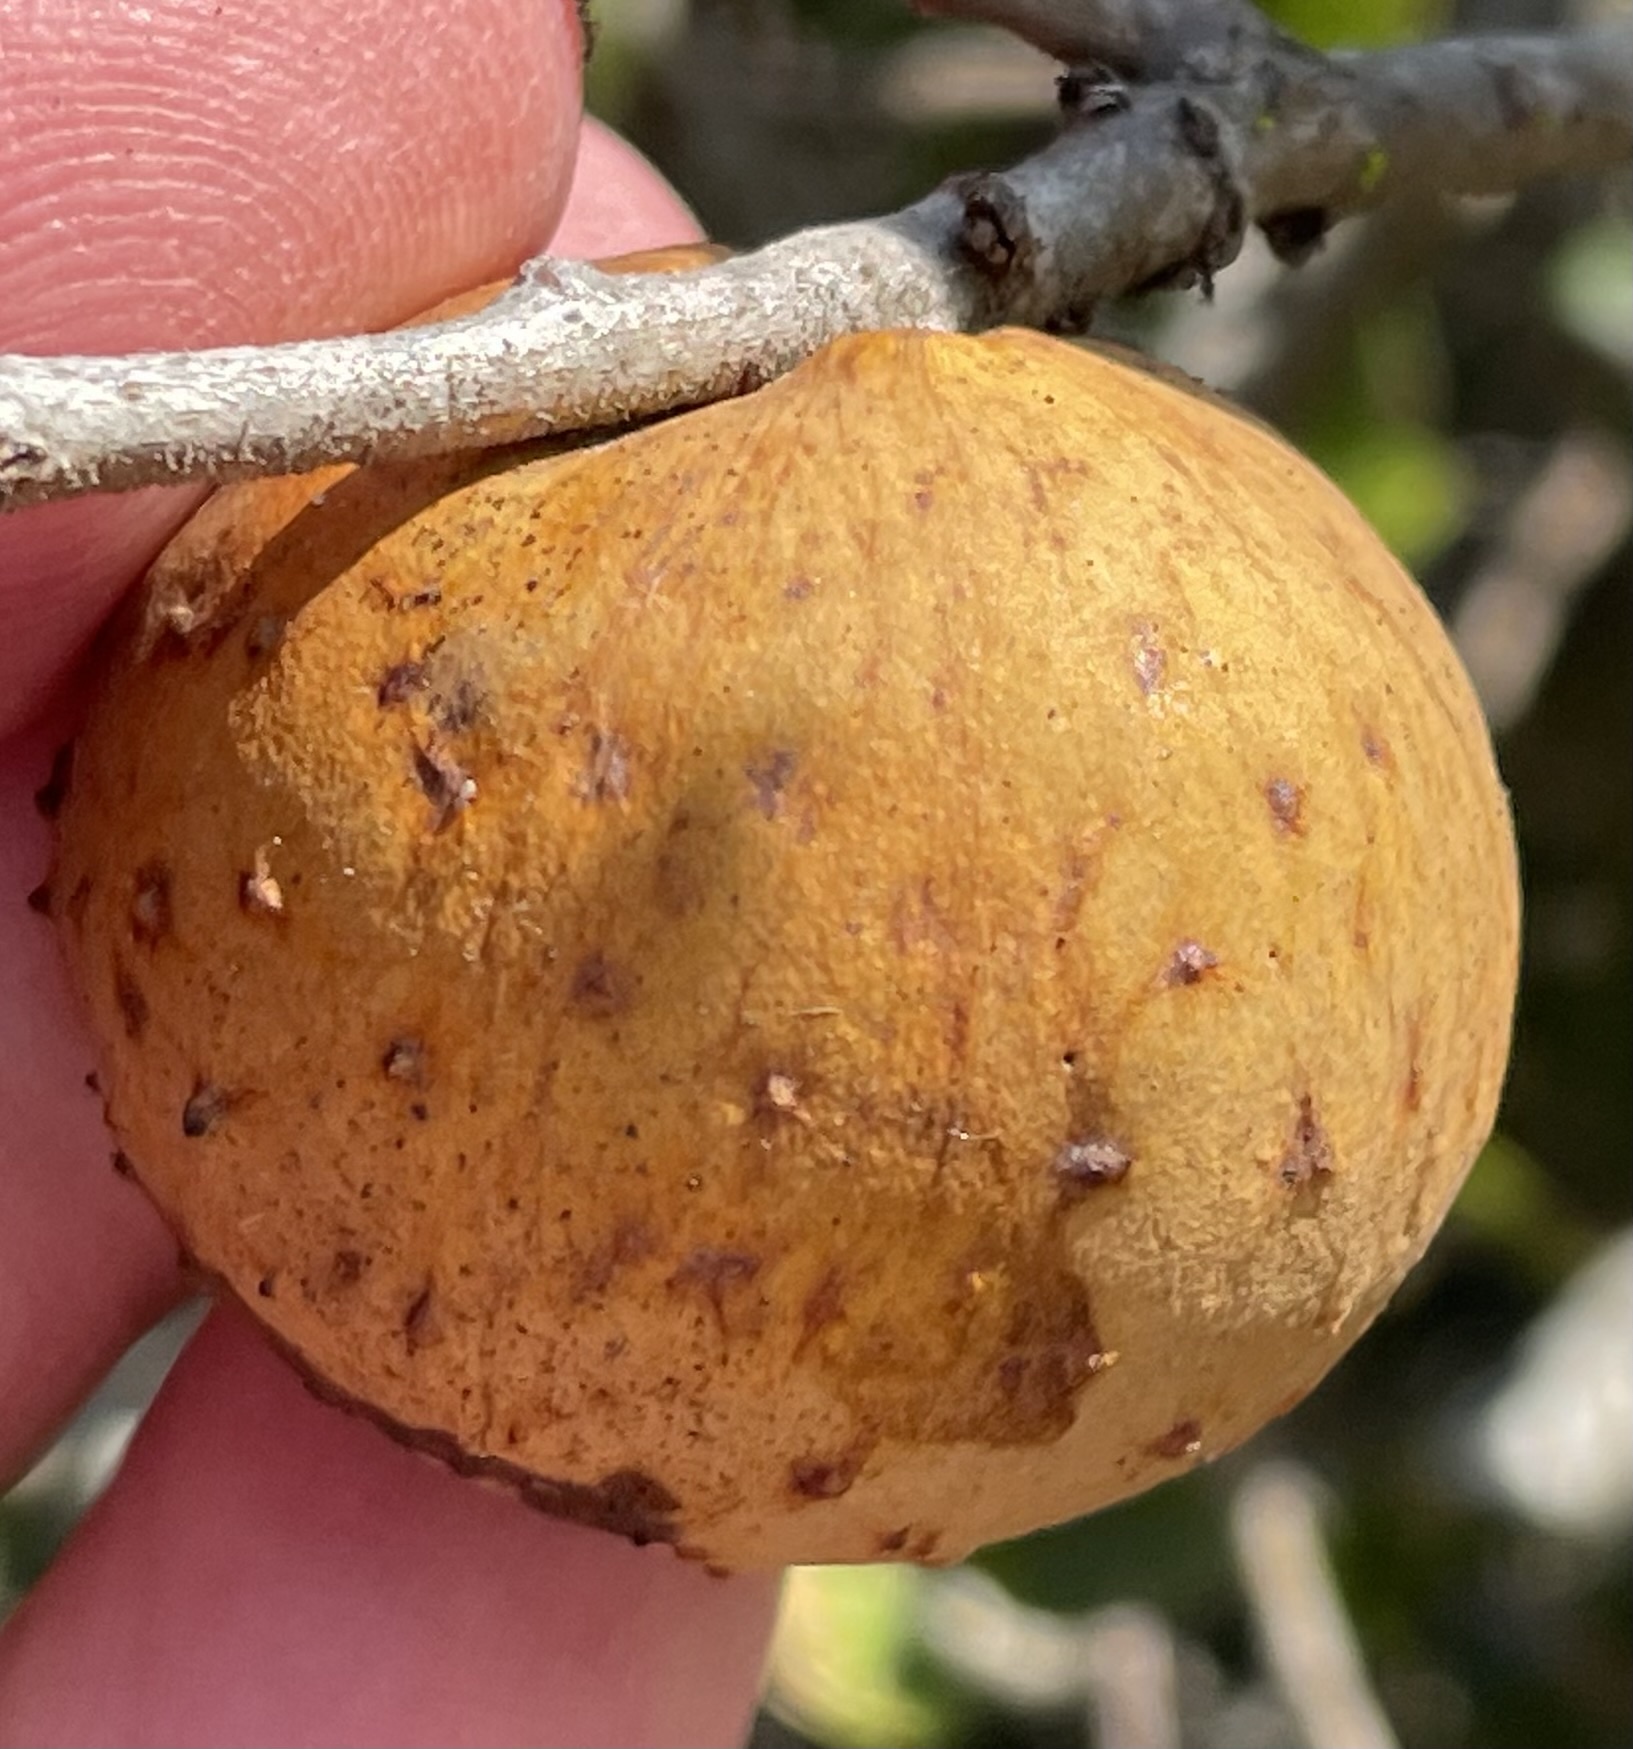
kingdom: Animalia
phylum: Arthropoda
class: Insecta
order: Hymenoptera
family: Cynipidae
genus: Amphibolips
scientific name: Amphibolips quercuspomiformis
